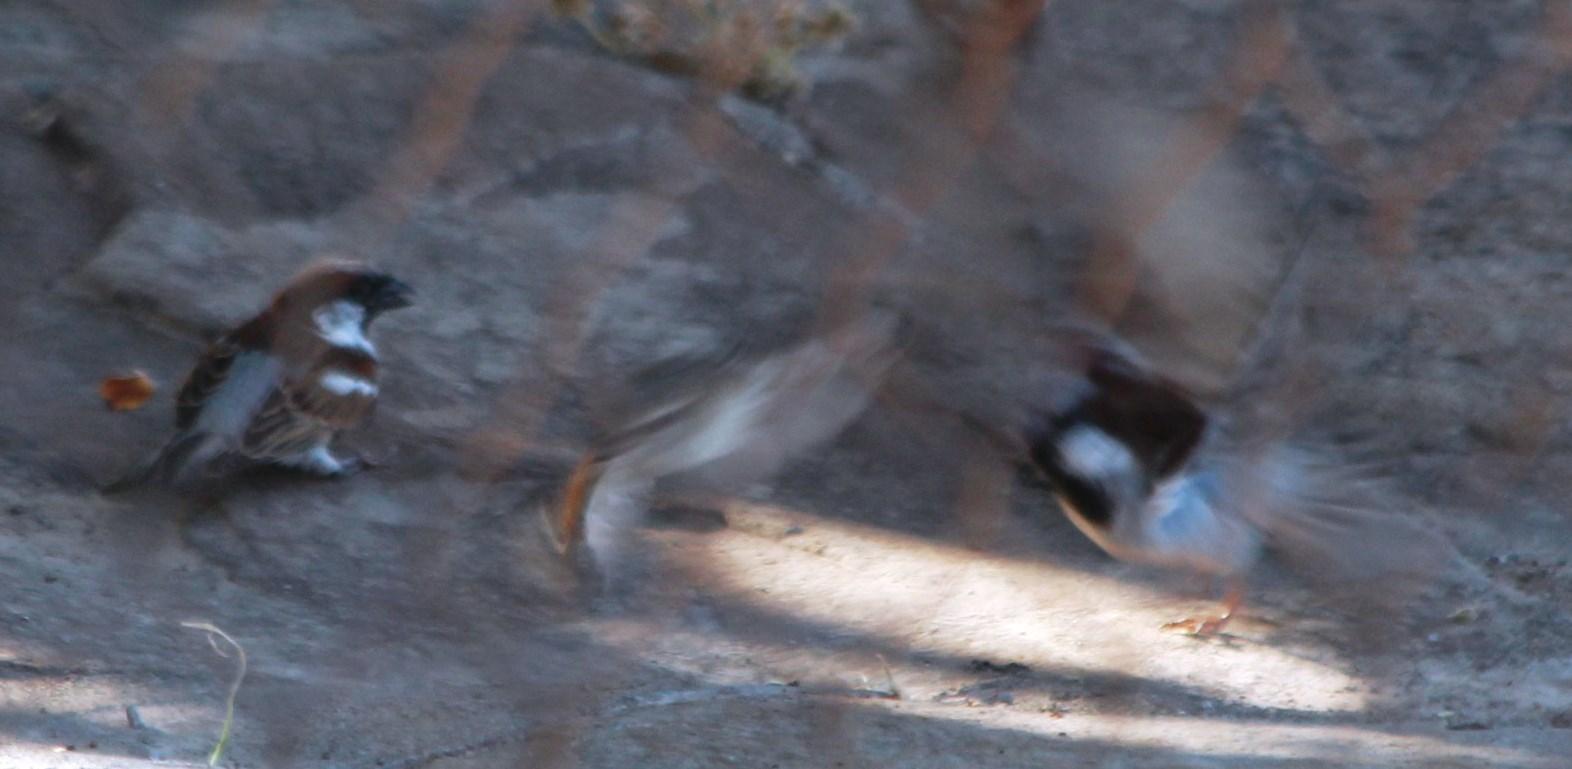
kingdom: Animalia
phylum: Chordata
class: Aves
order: Passeriformes
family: Passeridae
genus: Passer
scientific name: Passer domesticus
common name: House sparrow
